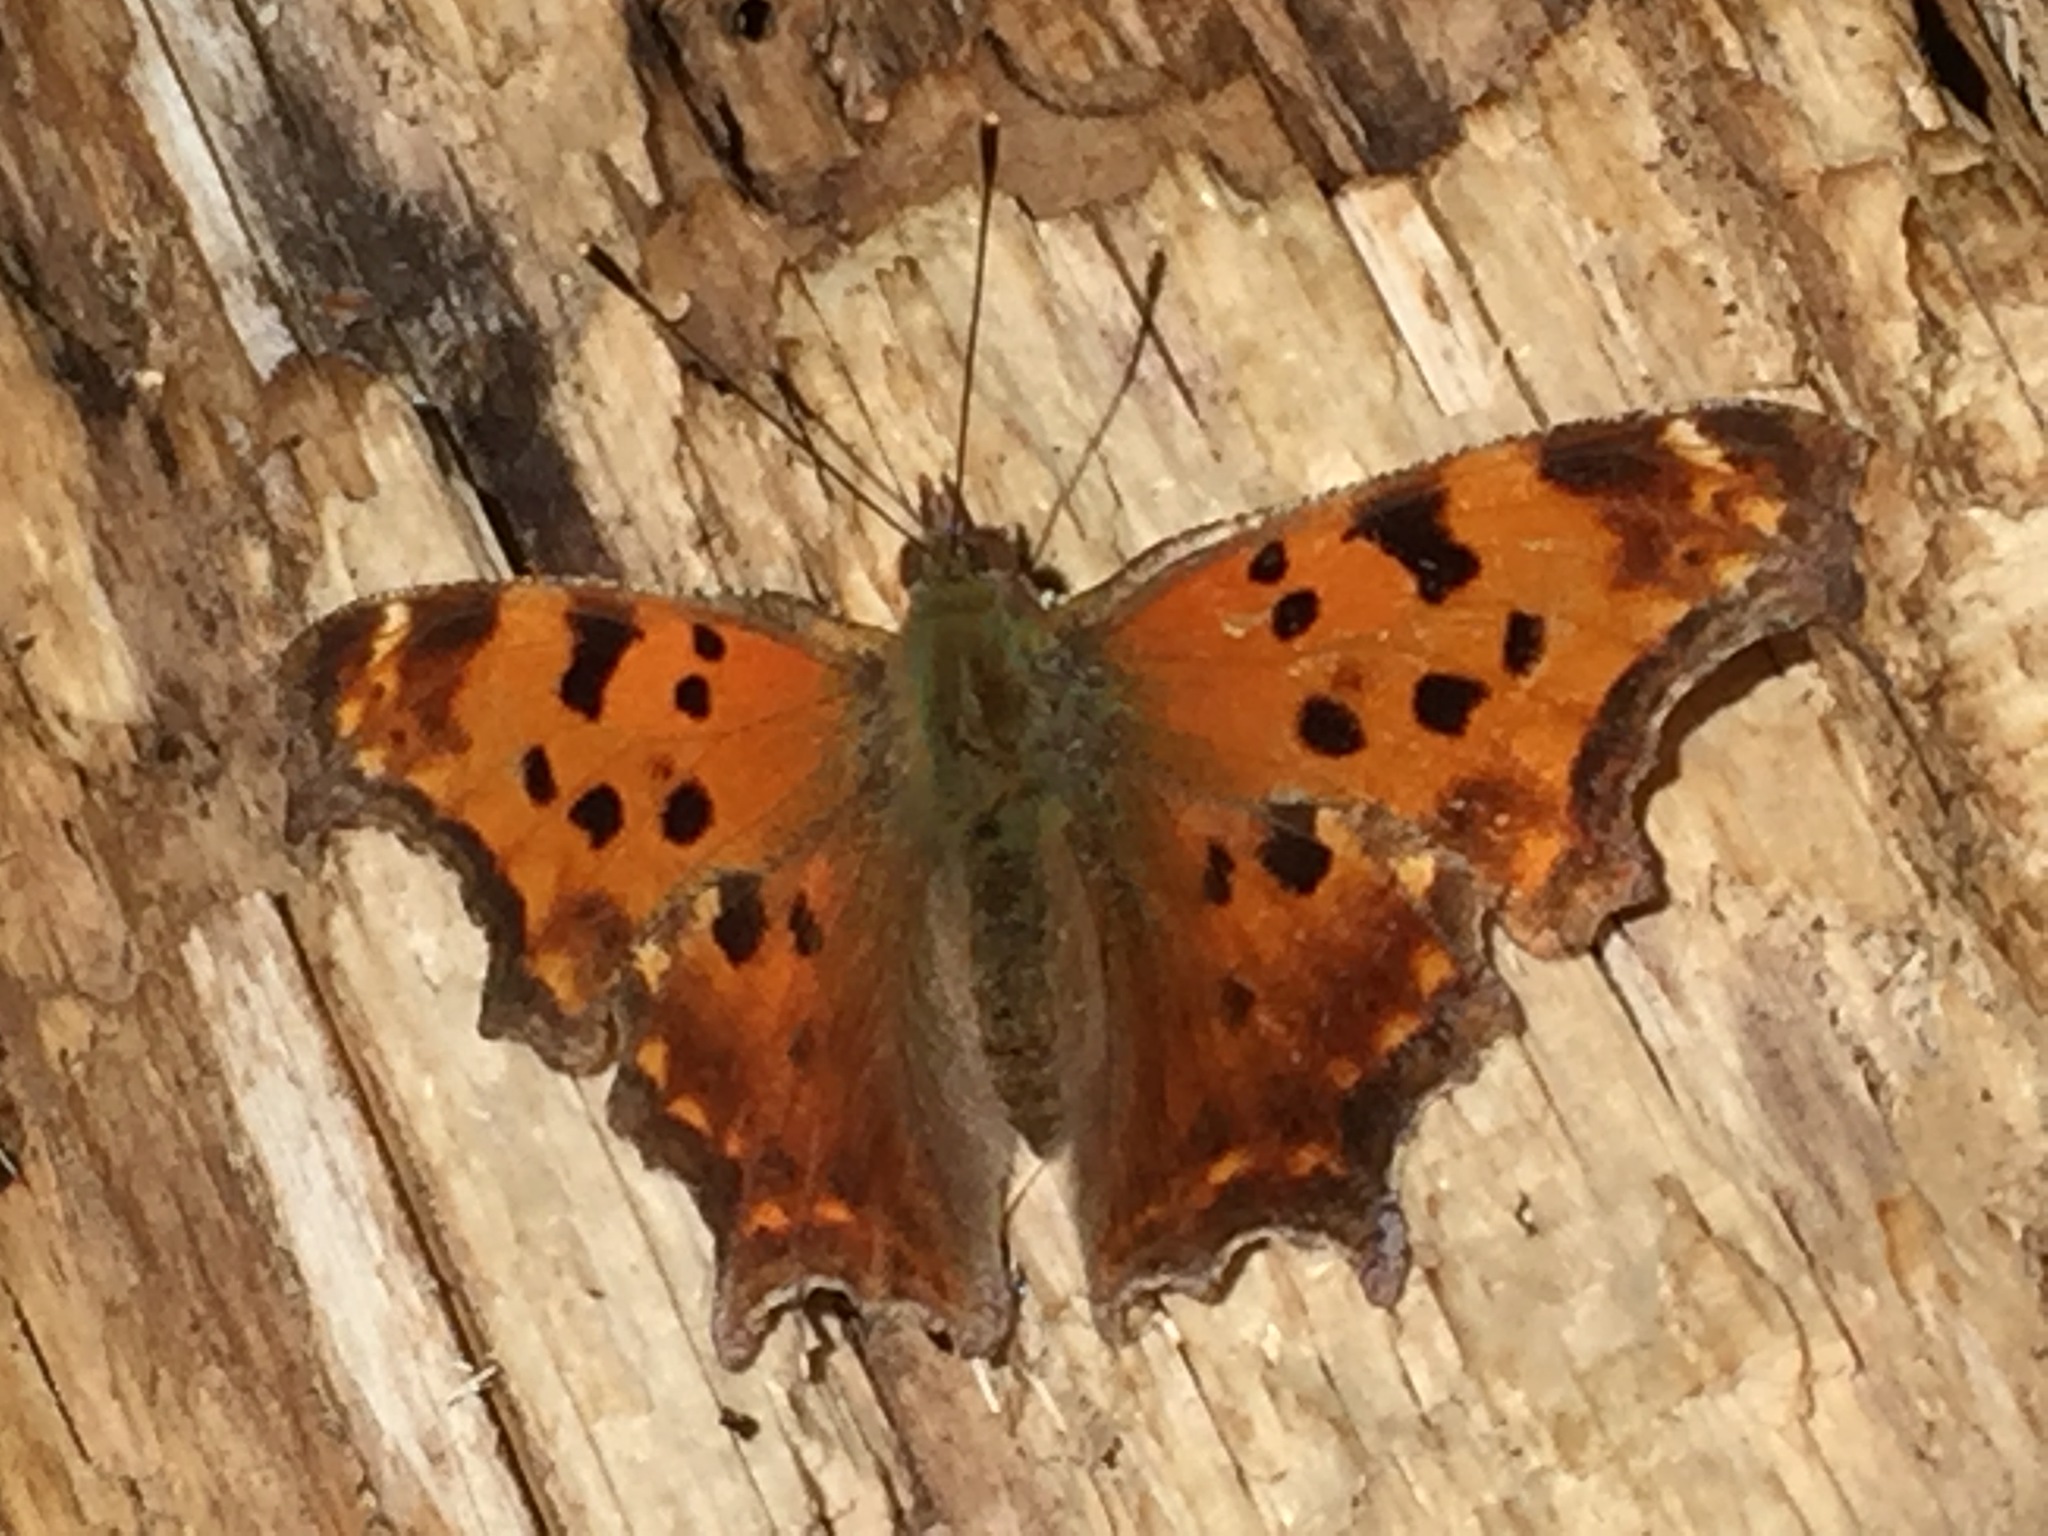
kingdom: Animalia
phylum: Arthropoda
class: Insecta
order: Lepidoptera
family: Nymphalidae
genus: Polygonia
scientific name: Polygonia comma
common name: Eastern comma
